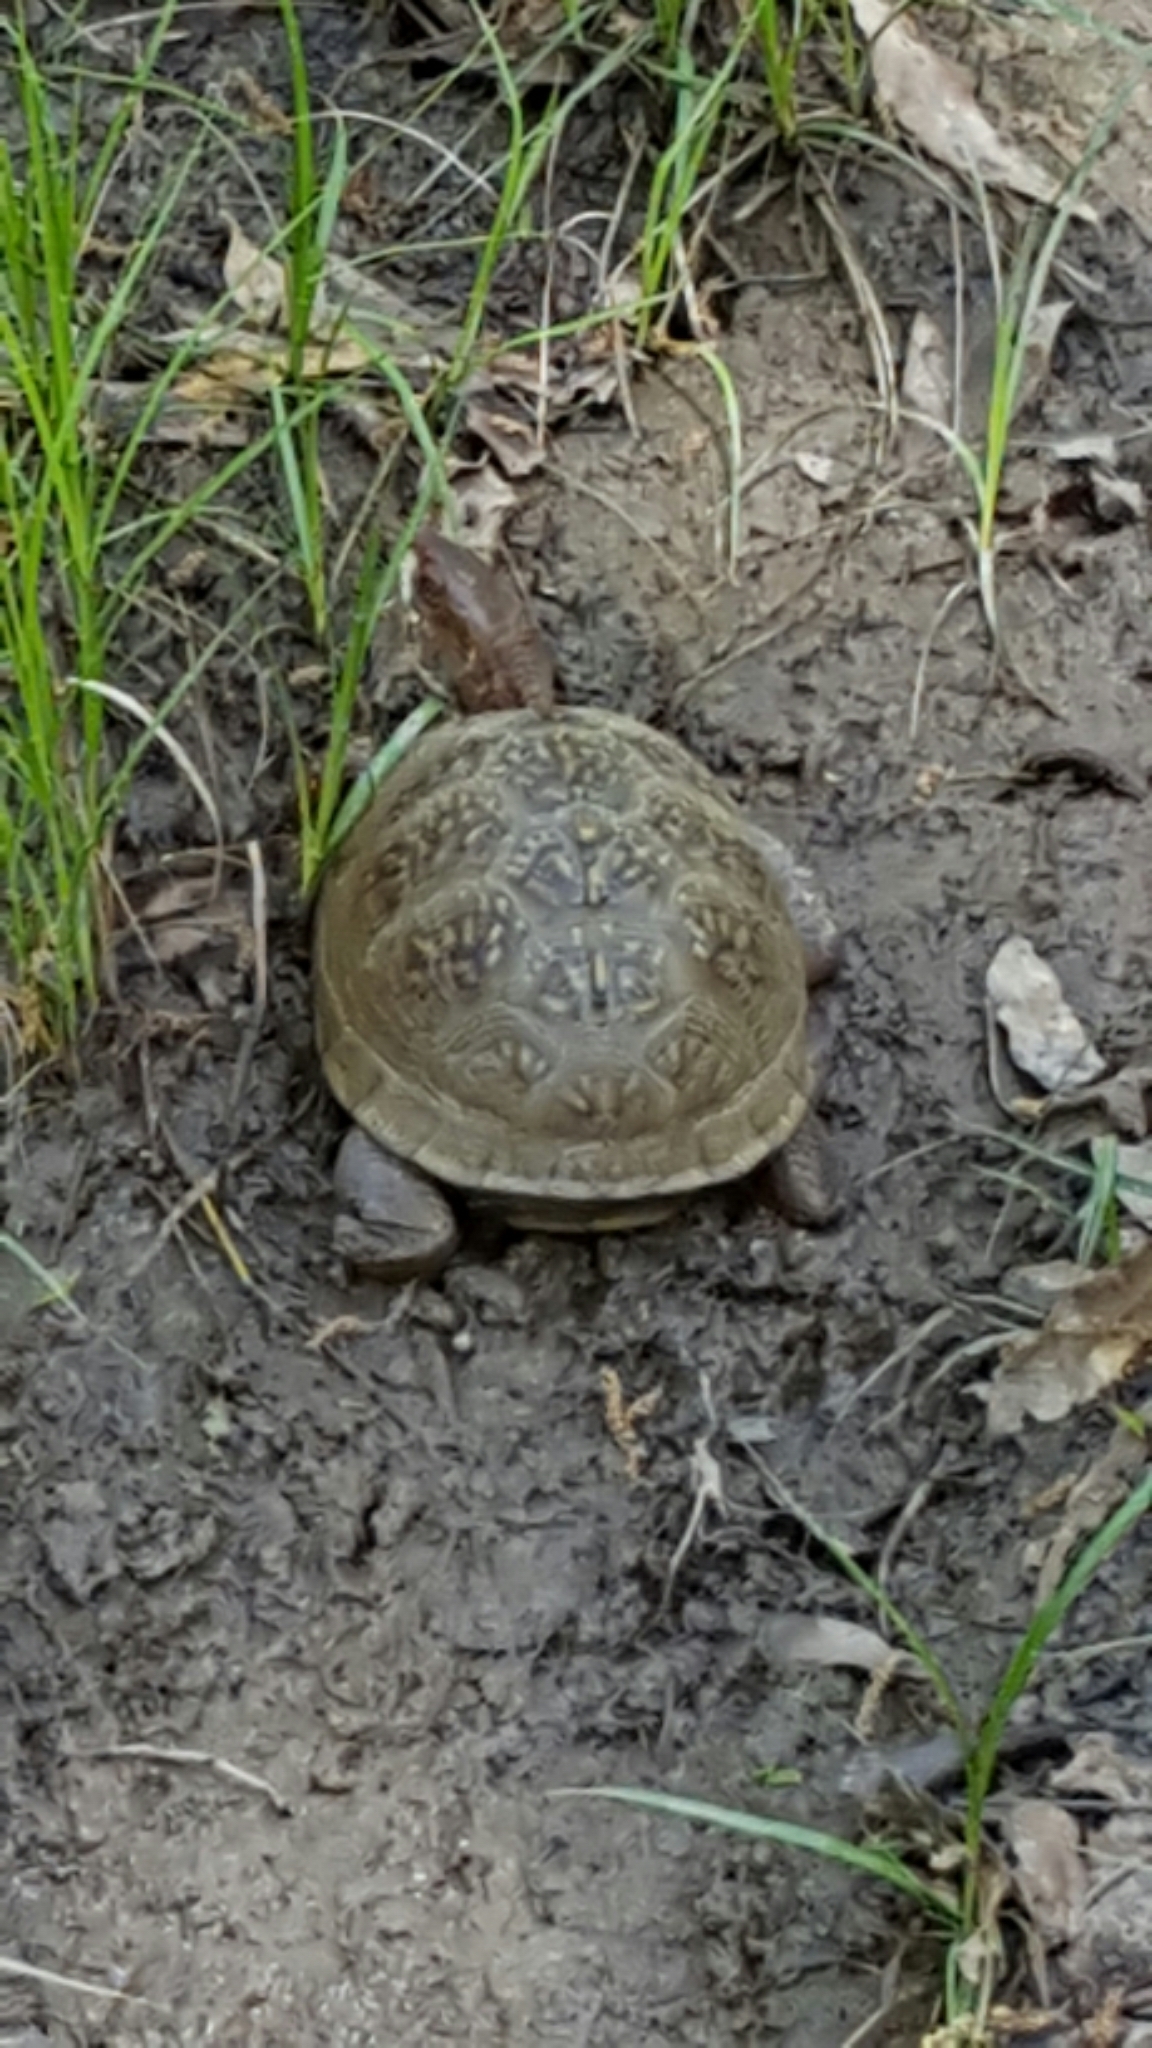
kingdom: Animalia
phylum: Chordata
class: Testudines
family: Emydidae
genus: Terrapene
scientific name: Terrapene carolina
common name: Common box turtle
